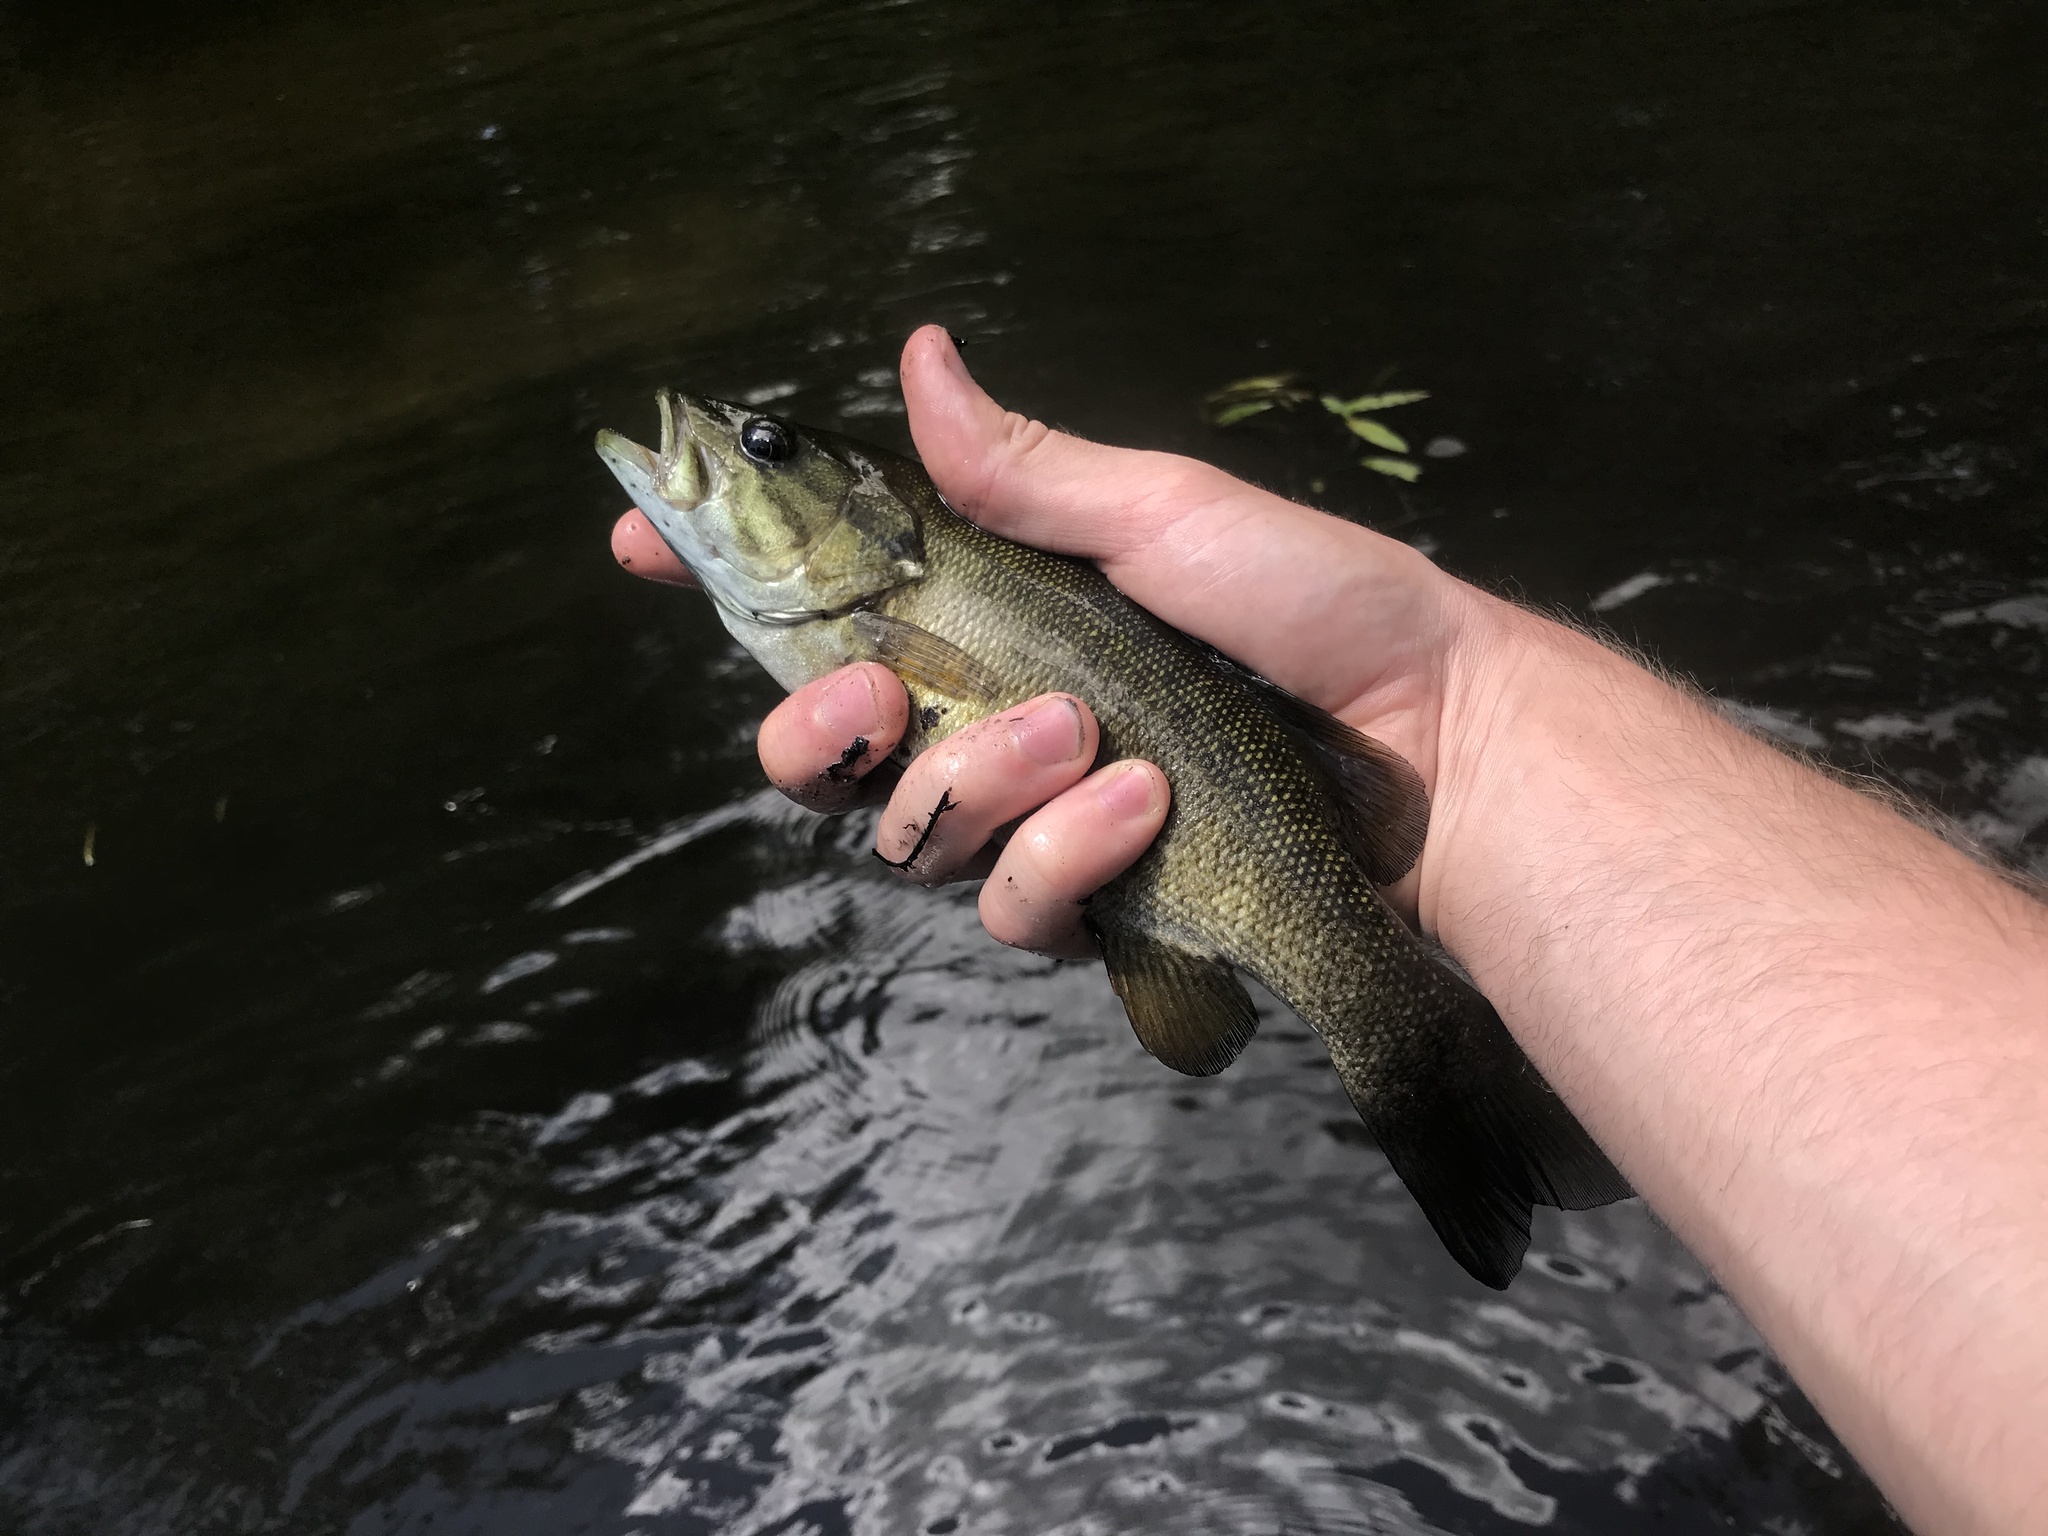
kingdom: Animalia
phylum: Chordata
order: Perciformes
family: Centrarchidae
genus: Micropterus
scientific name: Micropterus dolomieu
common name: Smallmouth bass
